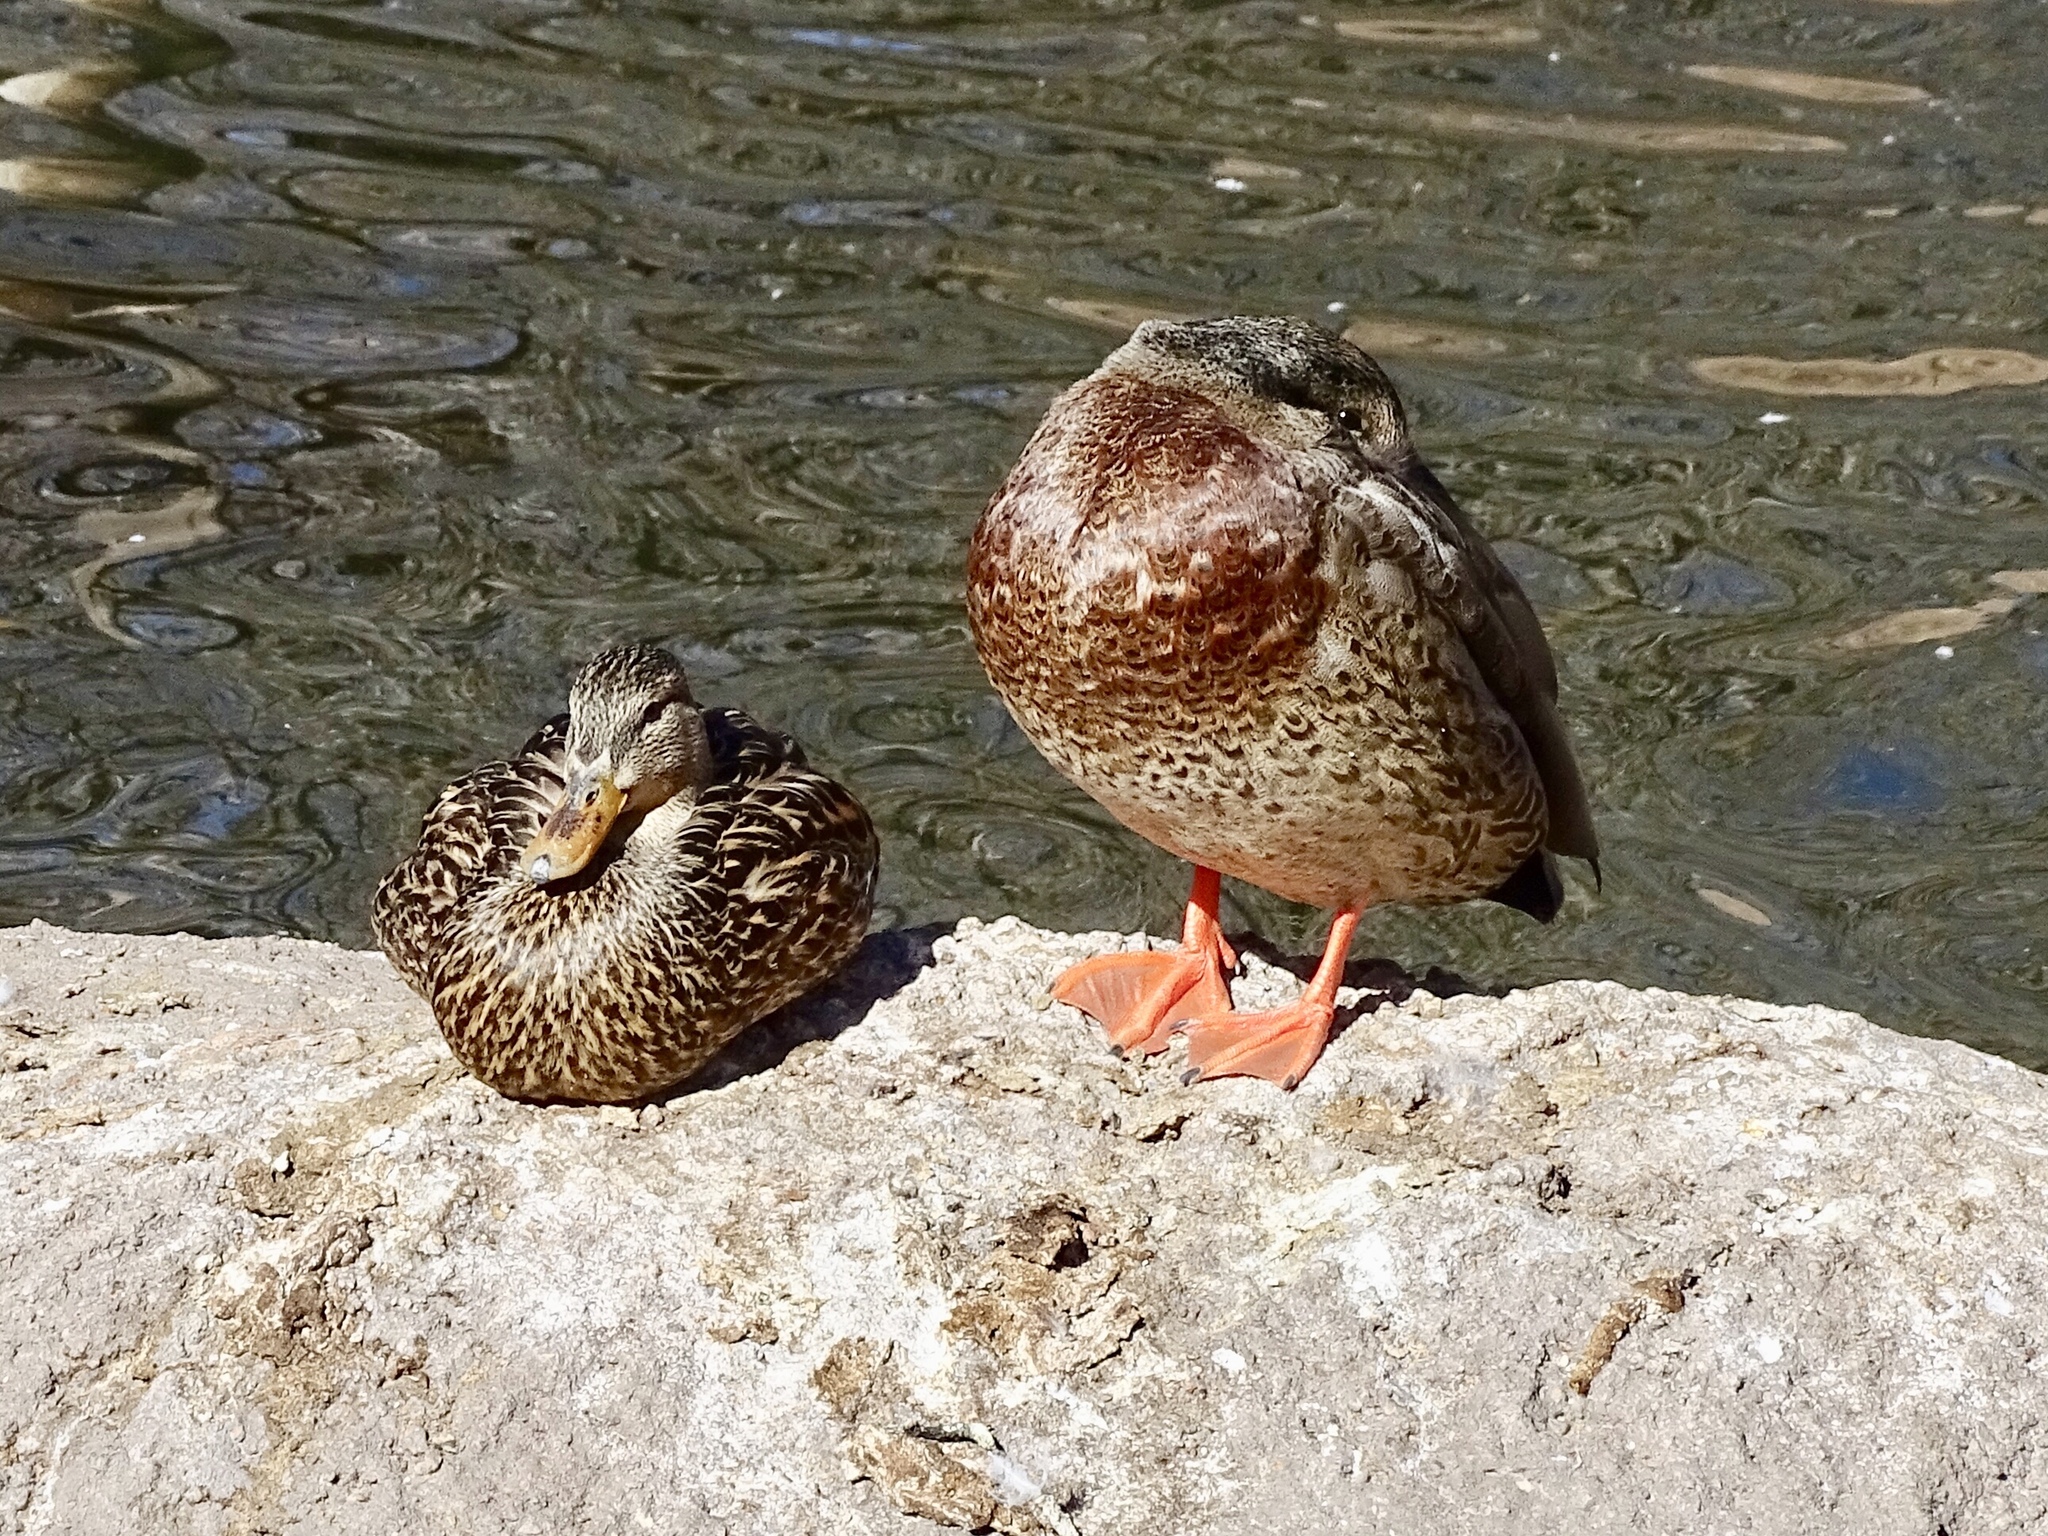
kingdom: Animalia
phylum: Chordata
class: Aves
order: Anseriformes
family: Anatidae
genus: Anas
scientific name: Anas
